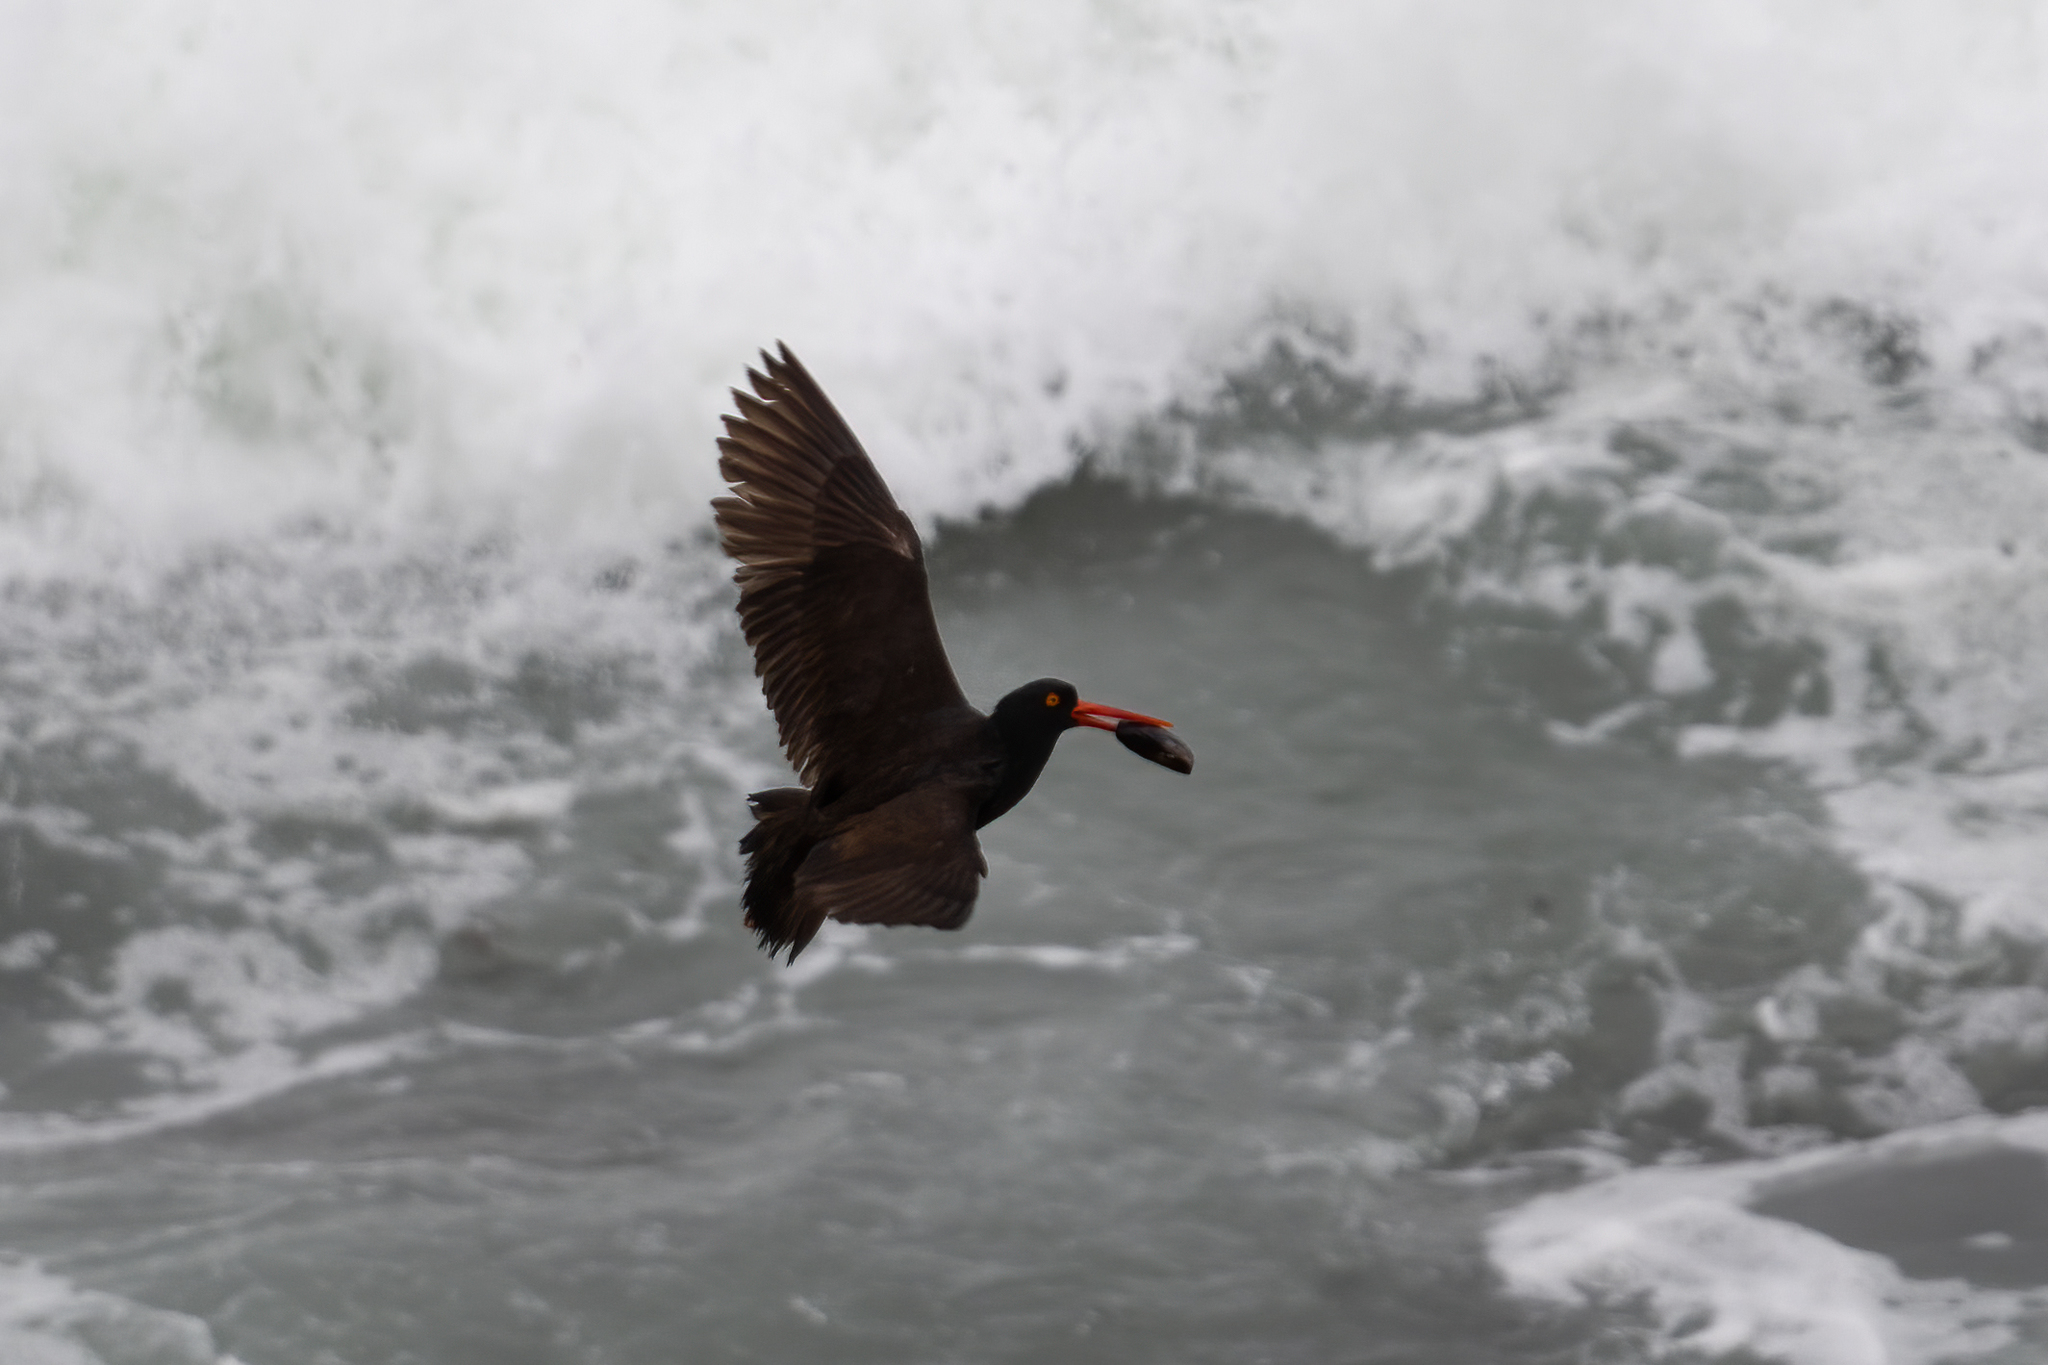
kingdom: Animalia
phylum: Chordata
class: Aves
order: Charadriiformes
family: Haematopodidae
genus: Haematopus
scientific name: Haematopus bachmani
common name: Black oystercatcher
